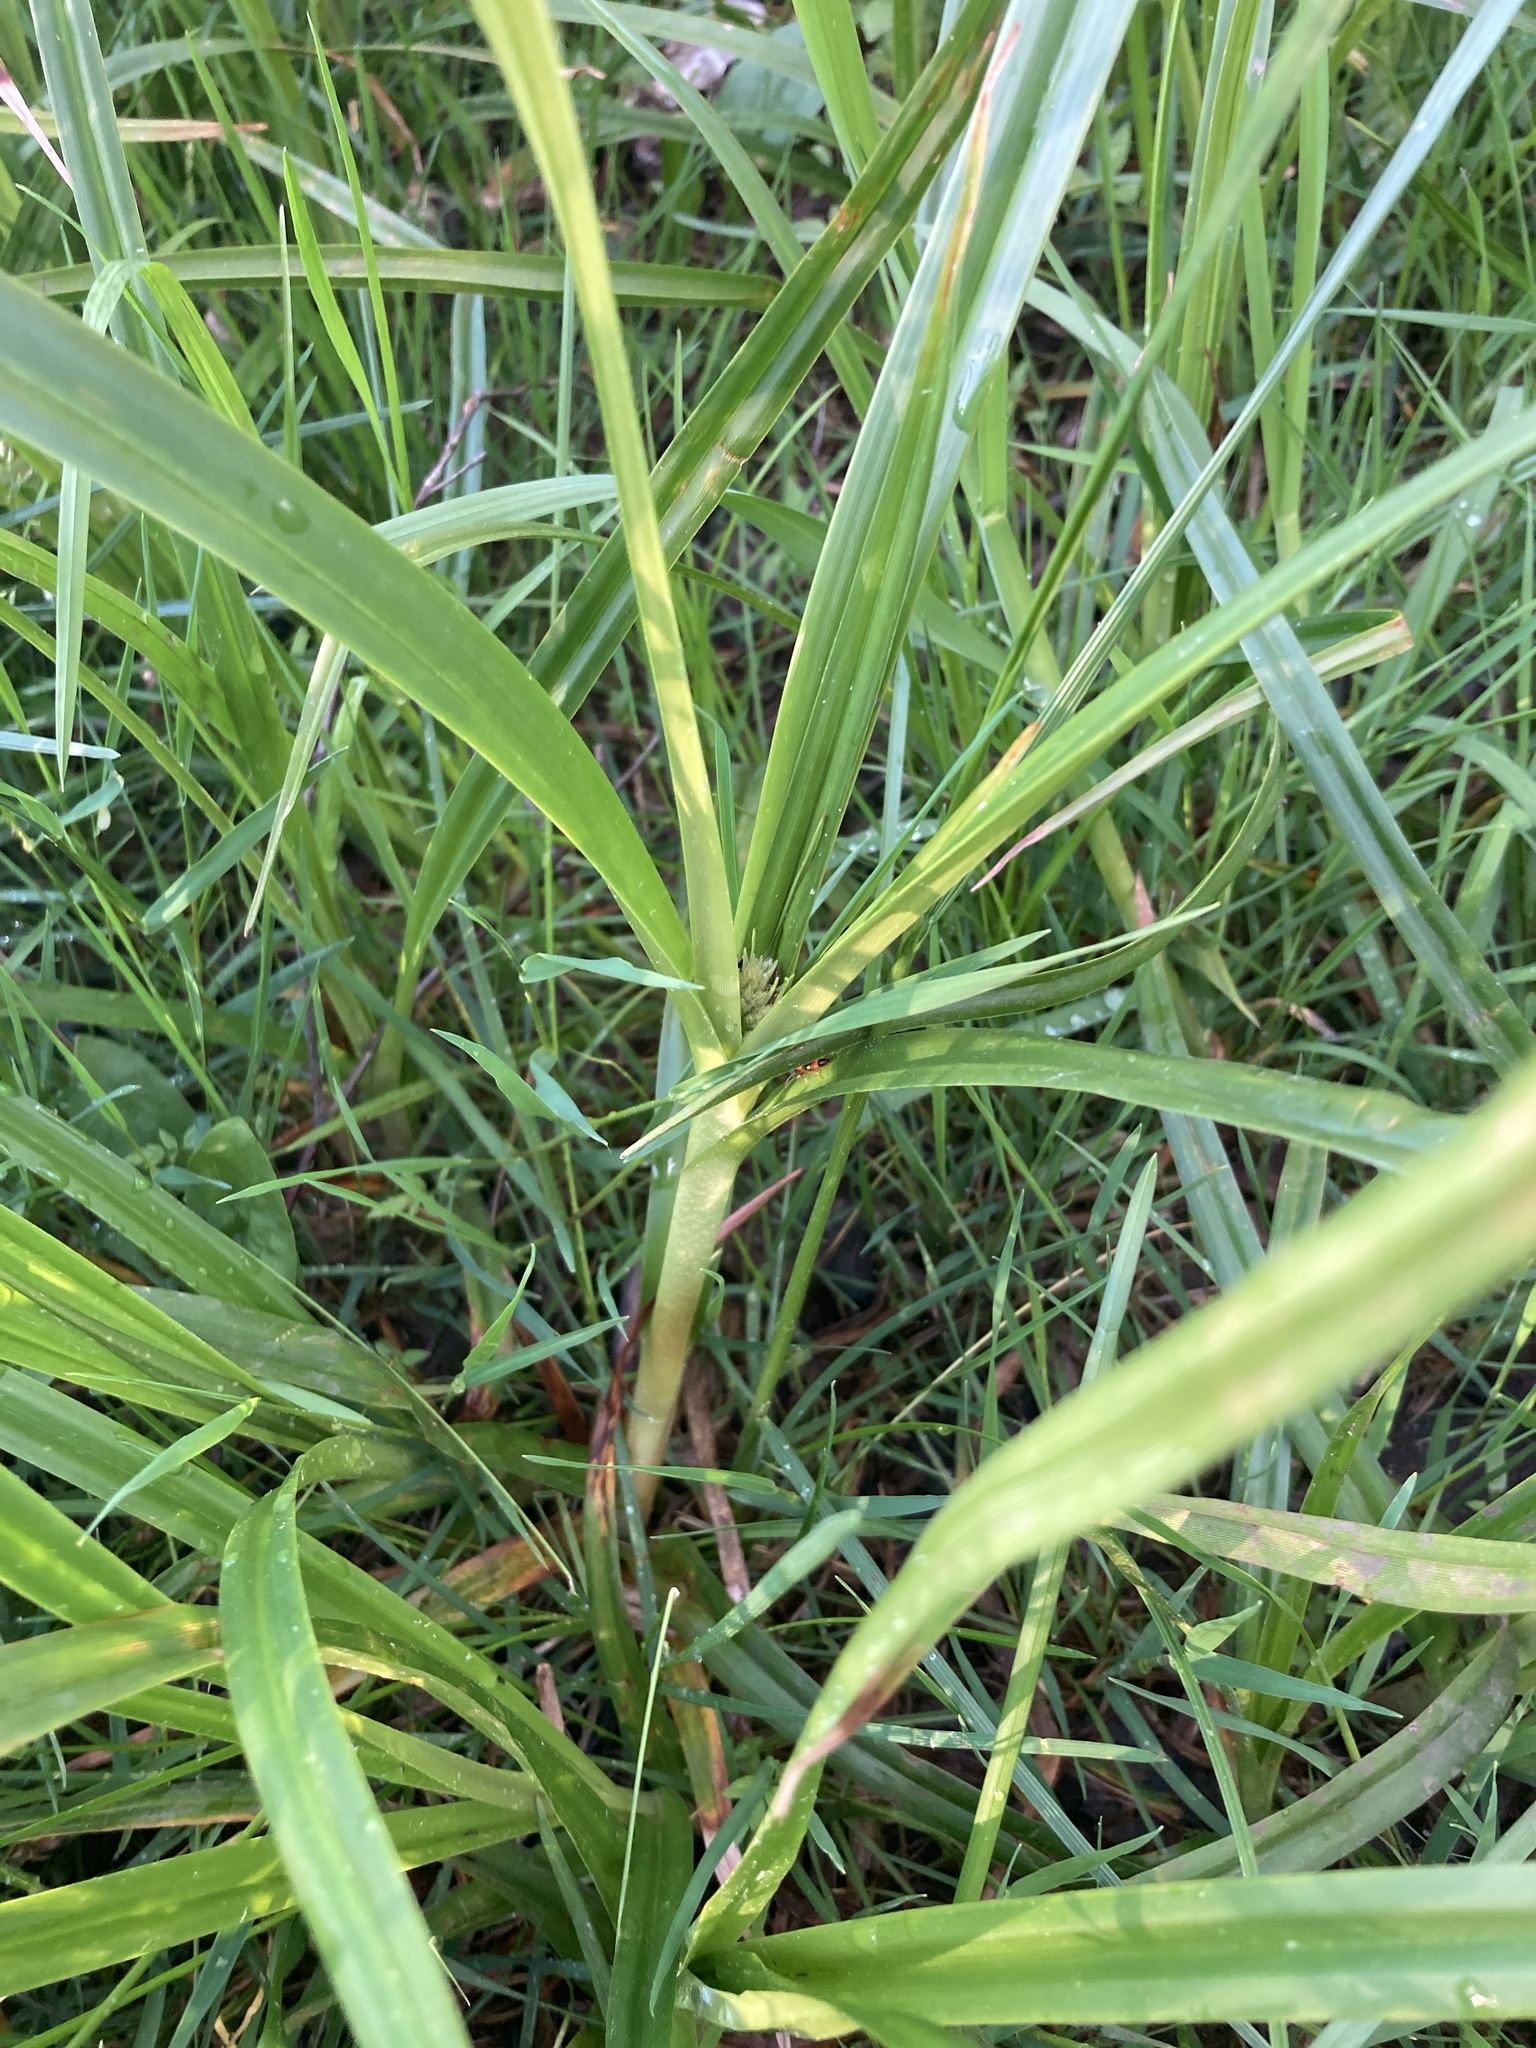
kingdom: Plantae
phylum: Tracheophyta
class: Liliopsida
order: Poales
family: Cyperaceae
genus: Scirpus
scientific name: Scirpus sylvaticus
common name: Wood club-rush
